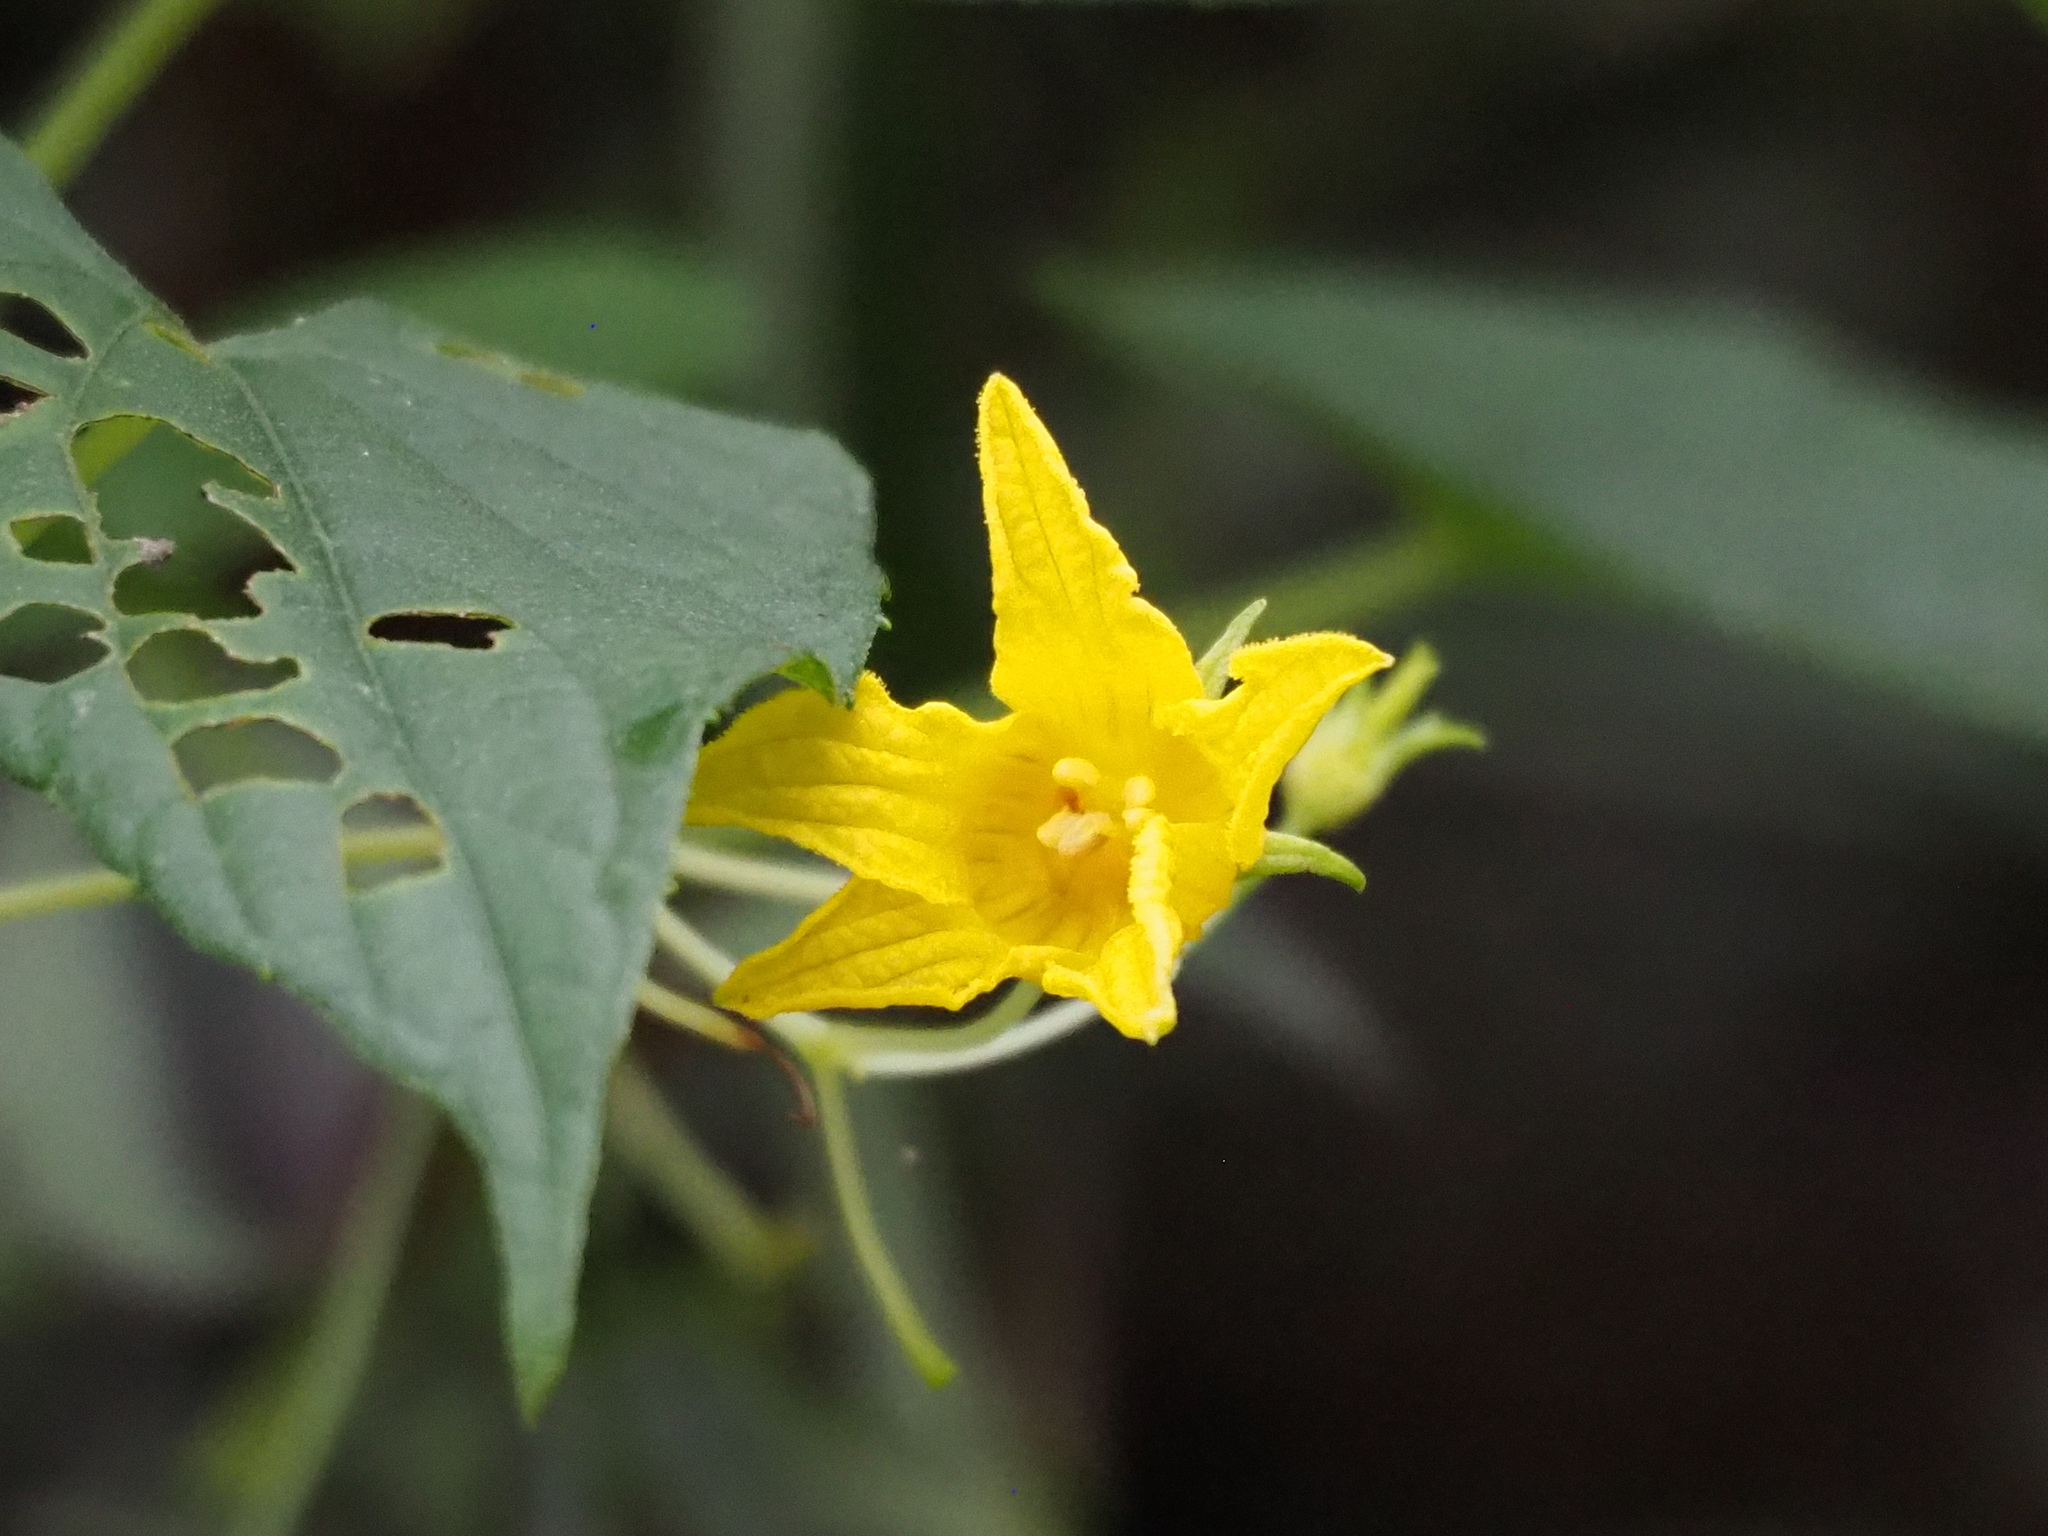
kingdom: Plantae
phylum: Tracheophyta
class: Magnoliopsida
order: Cucurbitales
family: Cucurbitaceae
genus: Thladiantha
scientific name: Thladiantha punctata
